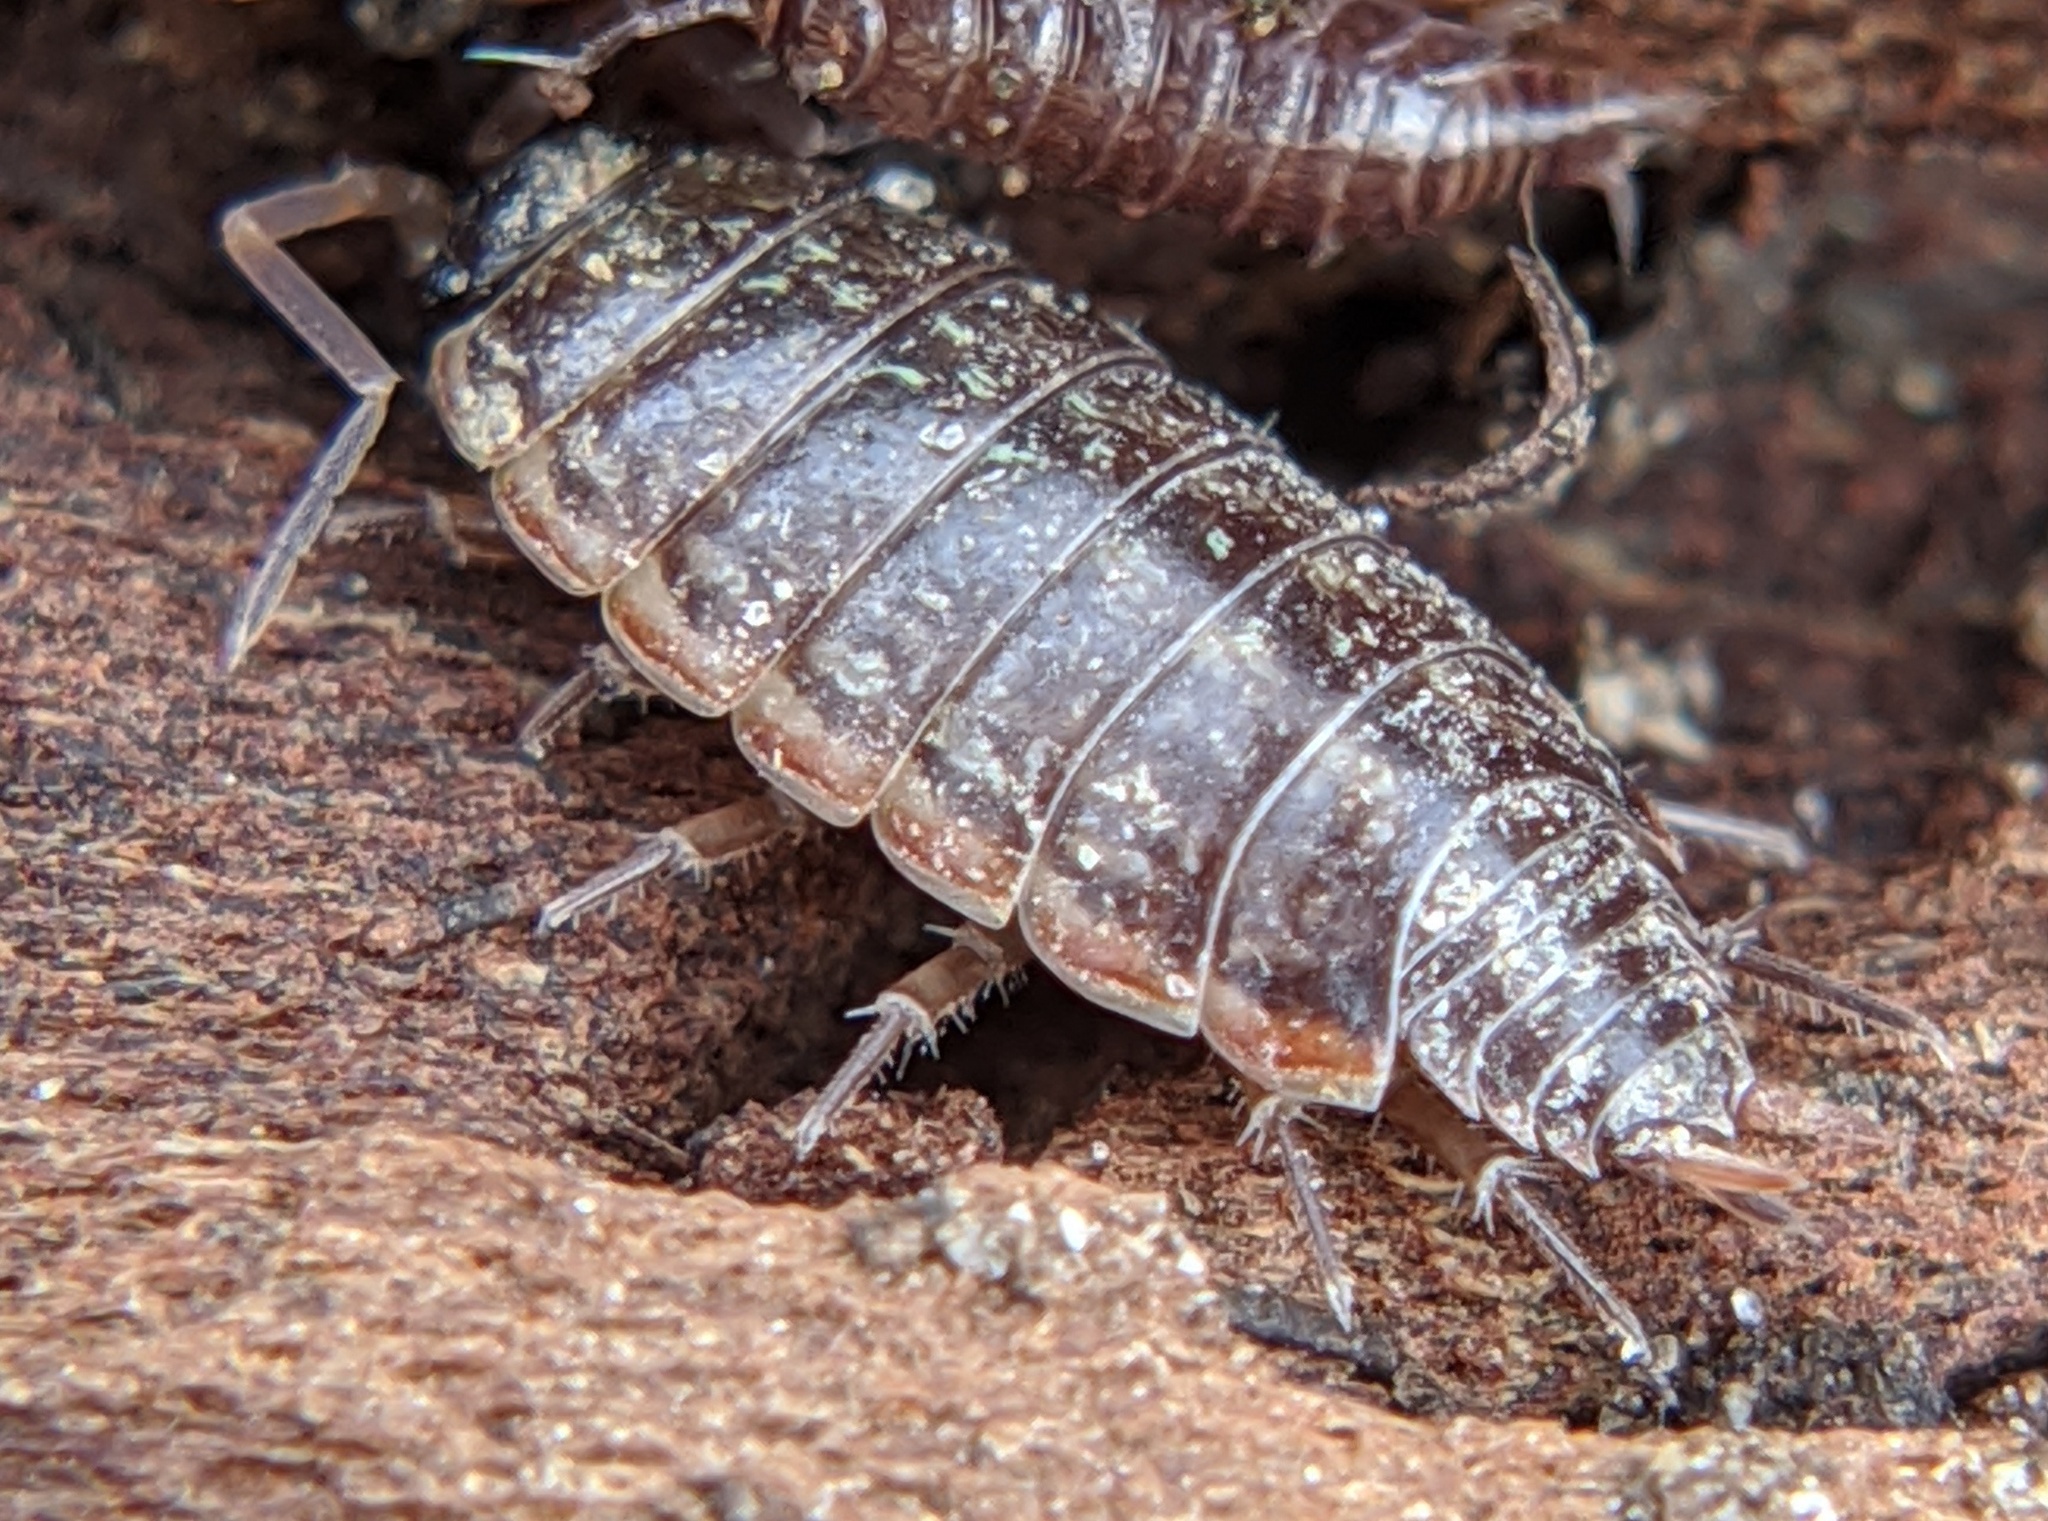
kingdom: Animalia
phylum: Arthropoda
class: Malacostraca
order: Isopoda
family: Philosciidae
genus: Philoscia
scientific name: Philoscia muscorum
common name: Common striped woodlouse
